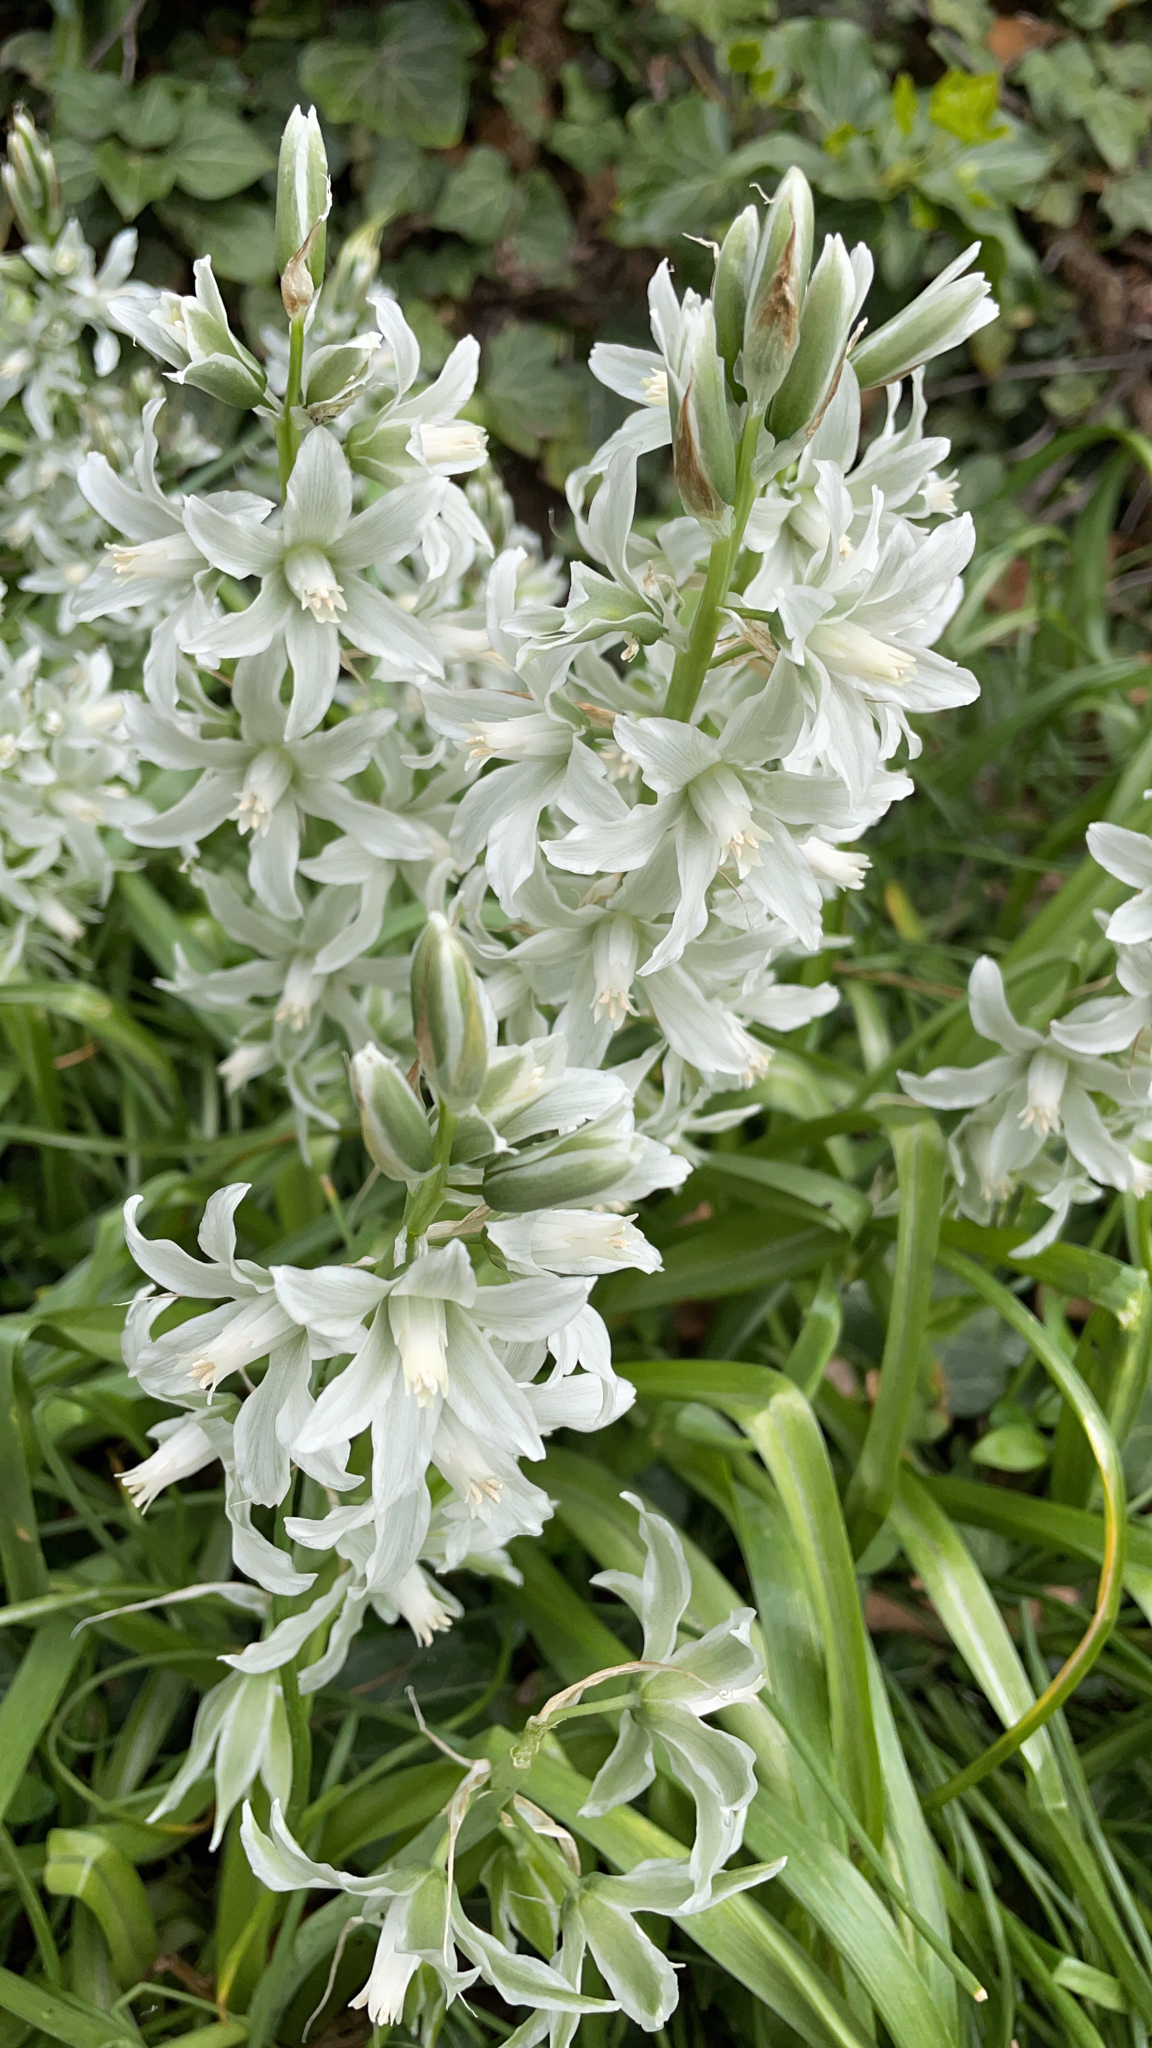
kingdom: Plantae
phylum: Tracheophyta
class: Liliopsida
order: Asparagales
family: Asparagaceae
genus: Ornithogalum
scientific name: Ornithogalum nutans
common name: Drooping star-of-bethlehem
